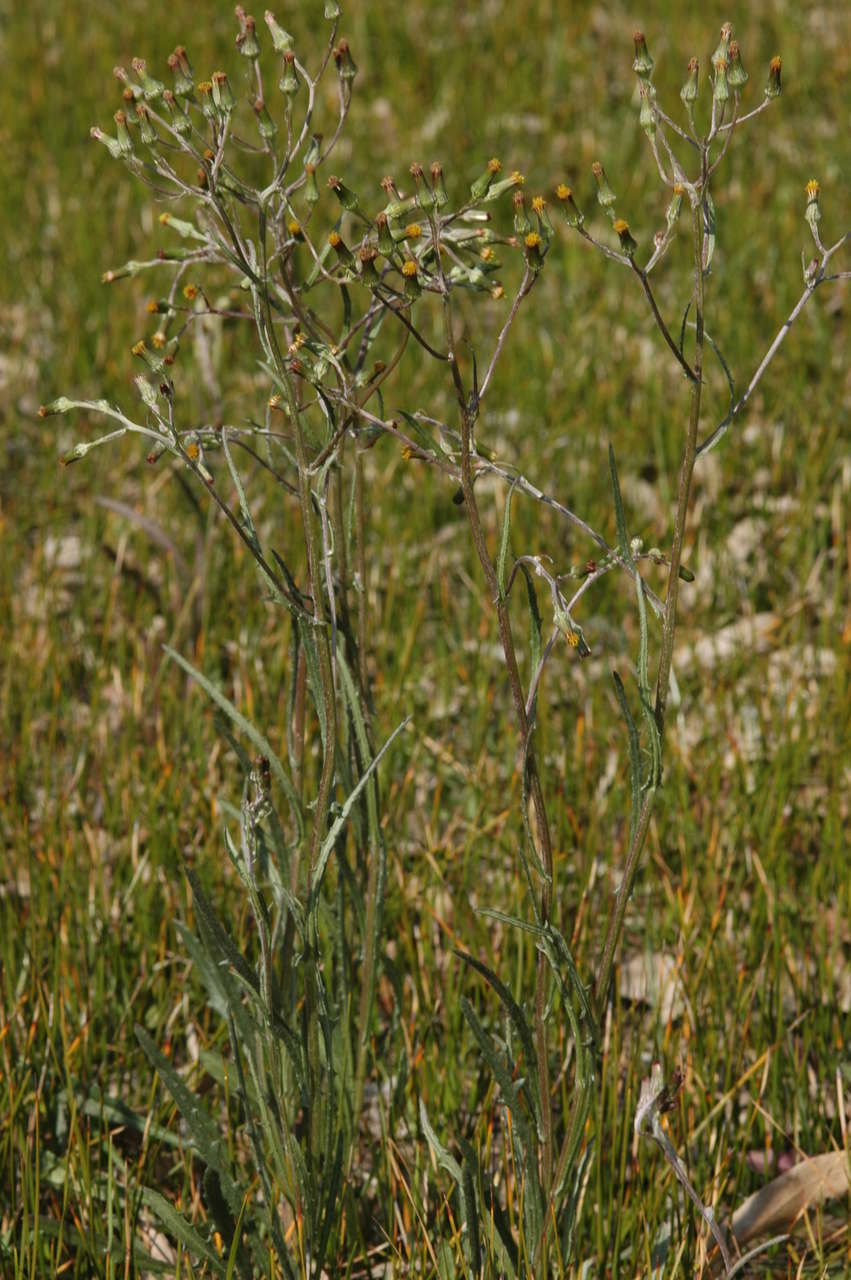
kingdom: Plantae
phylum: Tracheophyta
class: Magnoliopsida
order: Asterales
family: Asteraceae
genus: Senecio
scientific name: Senecio quadridentatus
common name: Cotton fireweed
